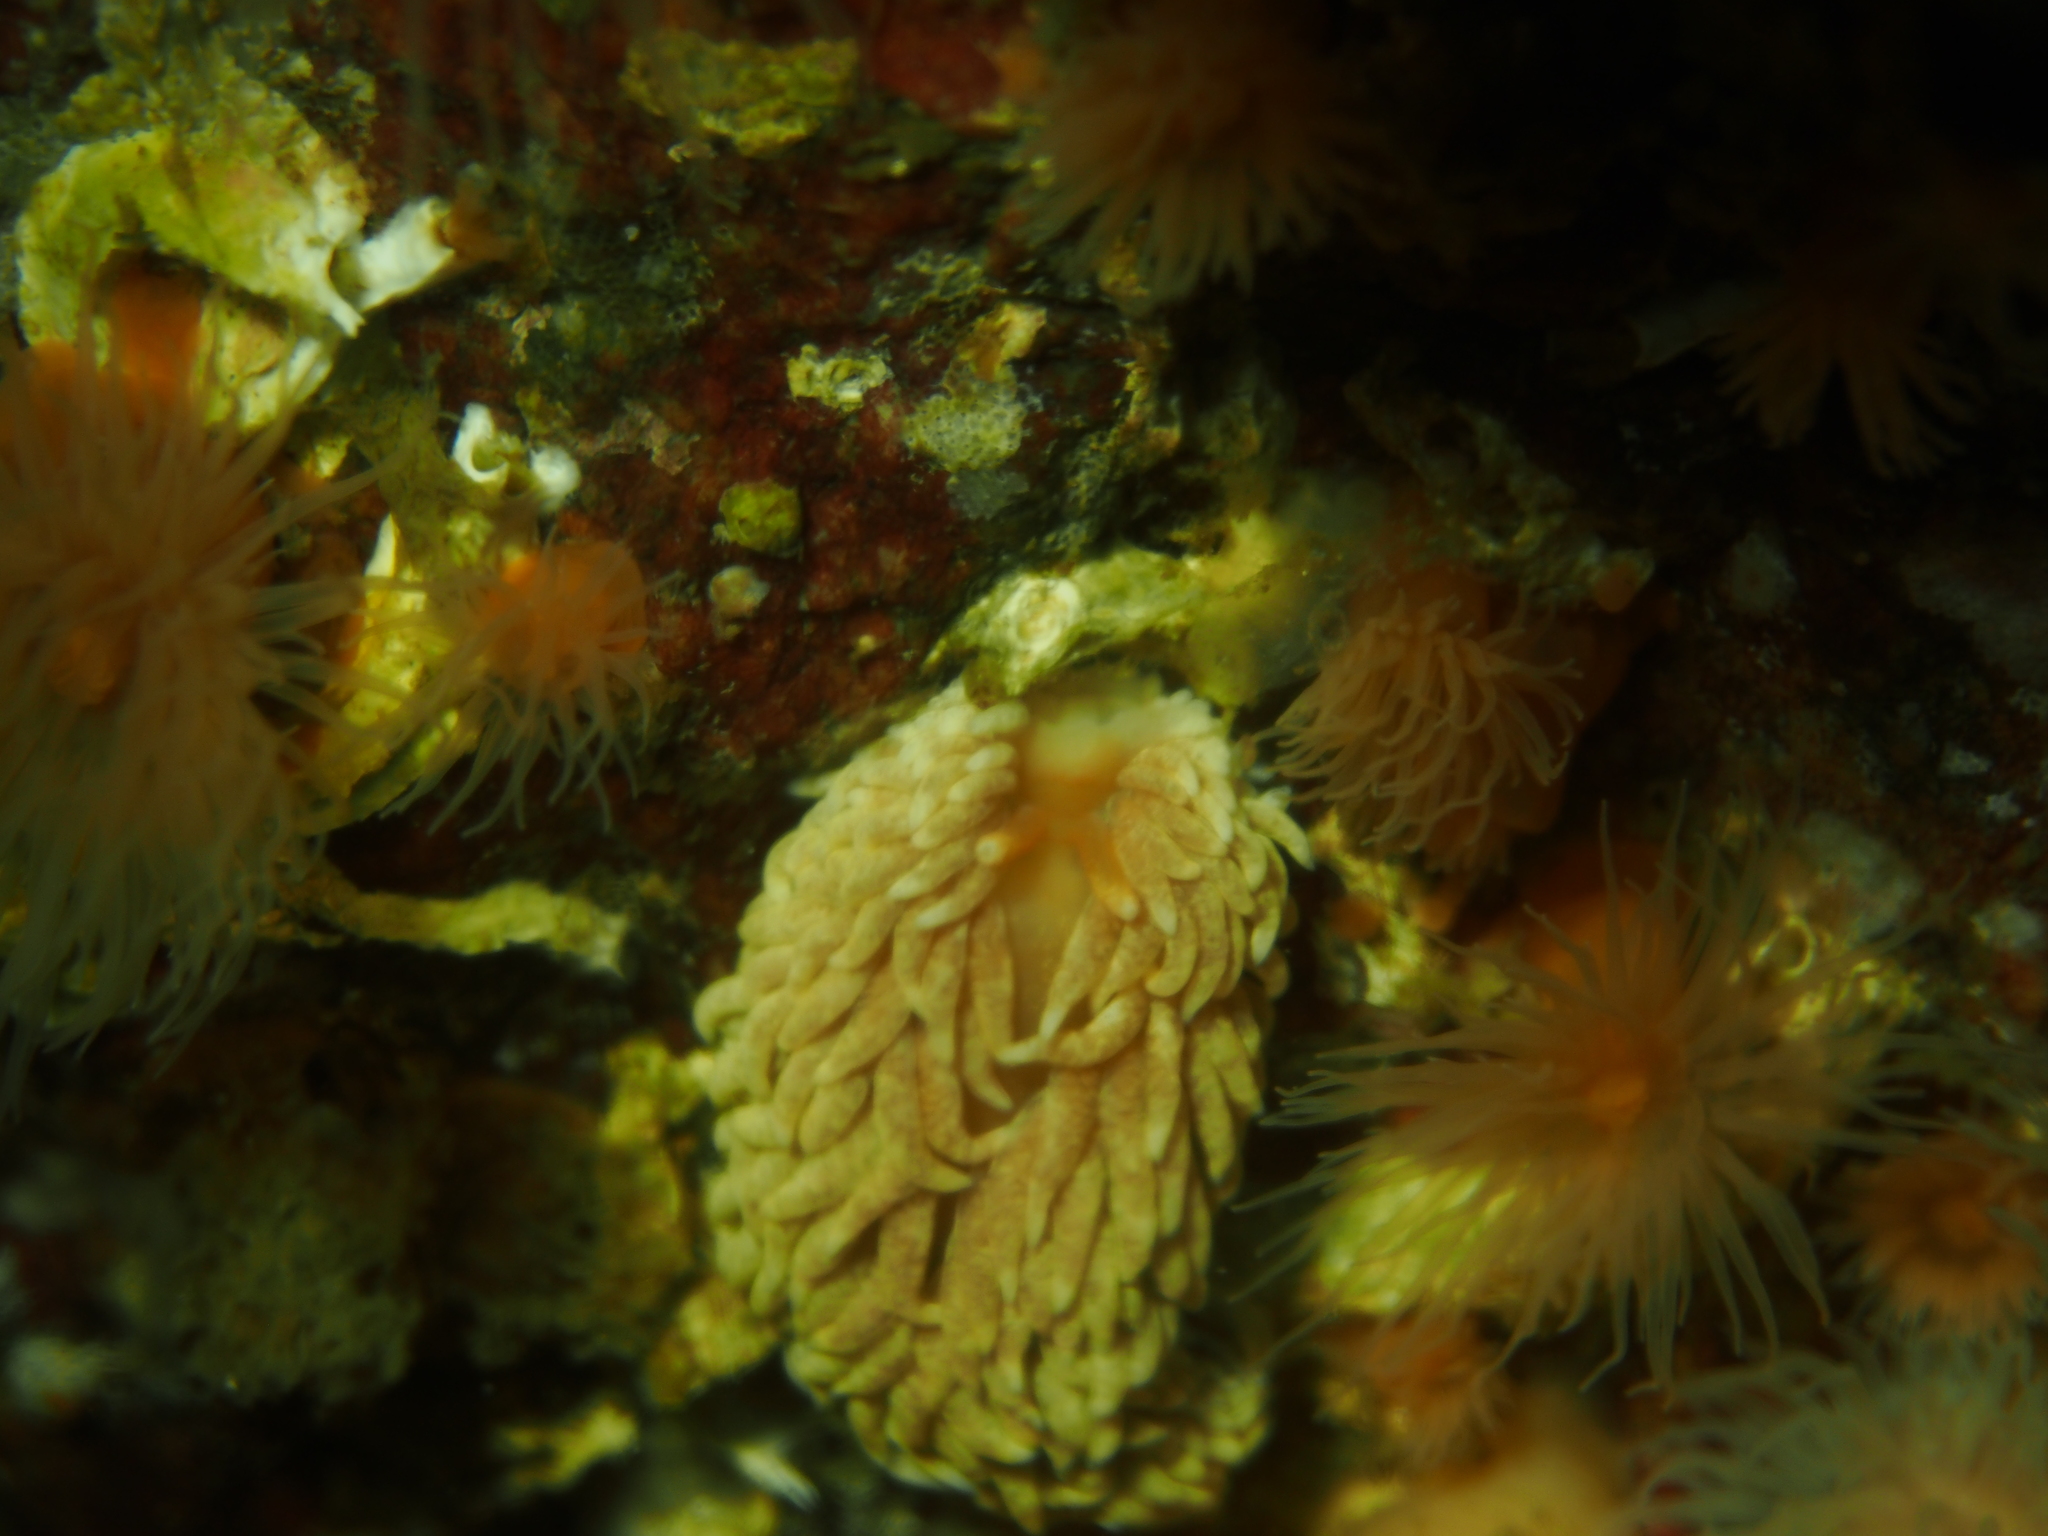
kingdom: Animalia
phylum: Mollusca
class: Gastropoda
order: Nudibranchia
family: Aeolidiidae
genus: Aeolidiella
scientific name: Aeolidiella glauca
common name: Orange-brown aeolid
